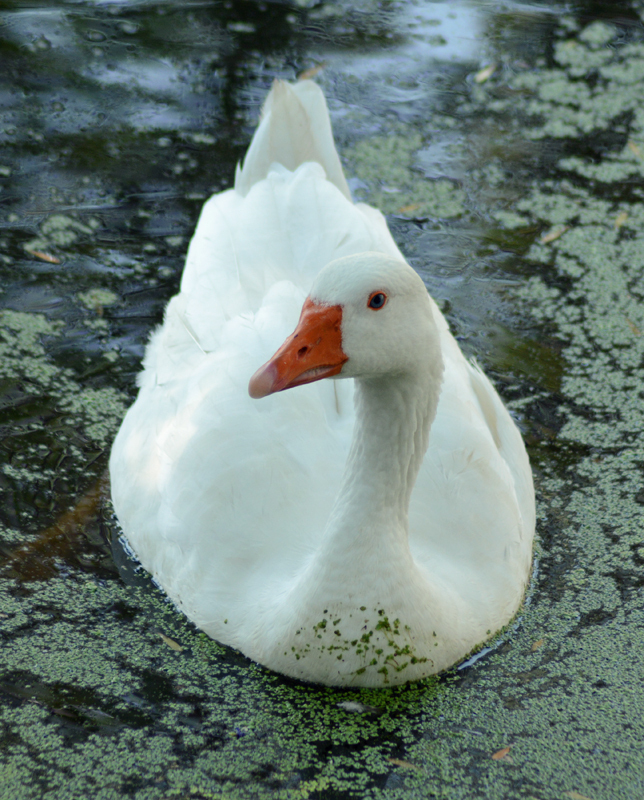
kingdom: Animalia
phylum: Chordata
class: Aves
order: Anseriformes
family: Anatidae
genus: Anser
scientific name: Anser
